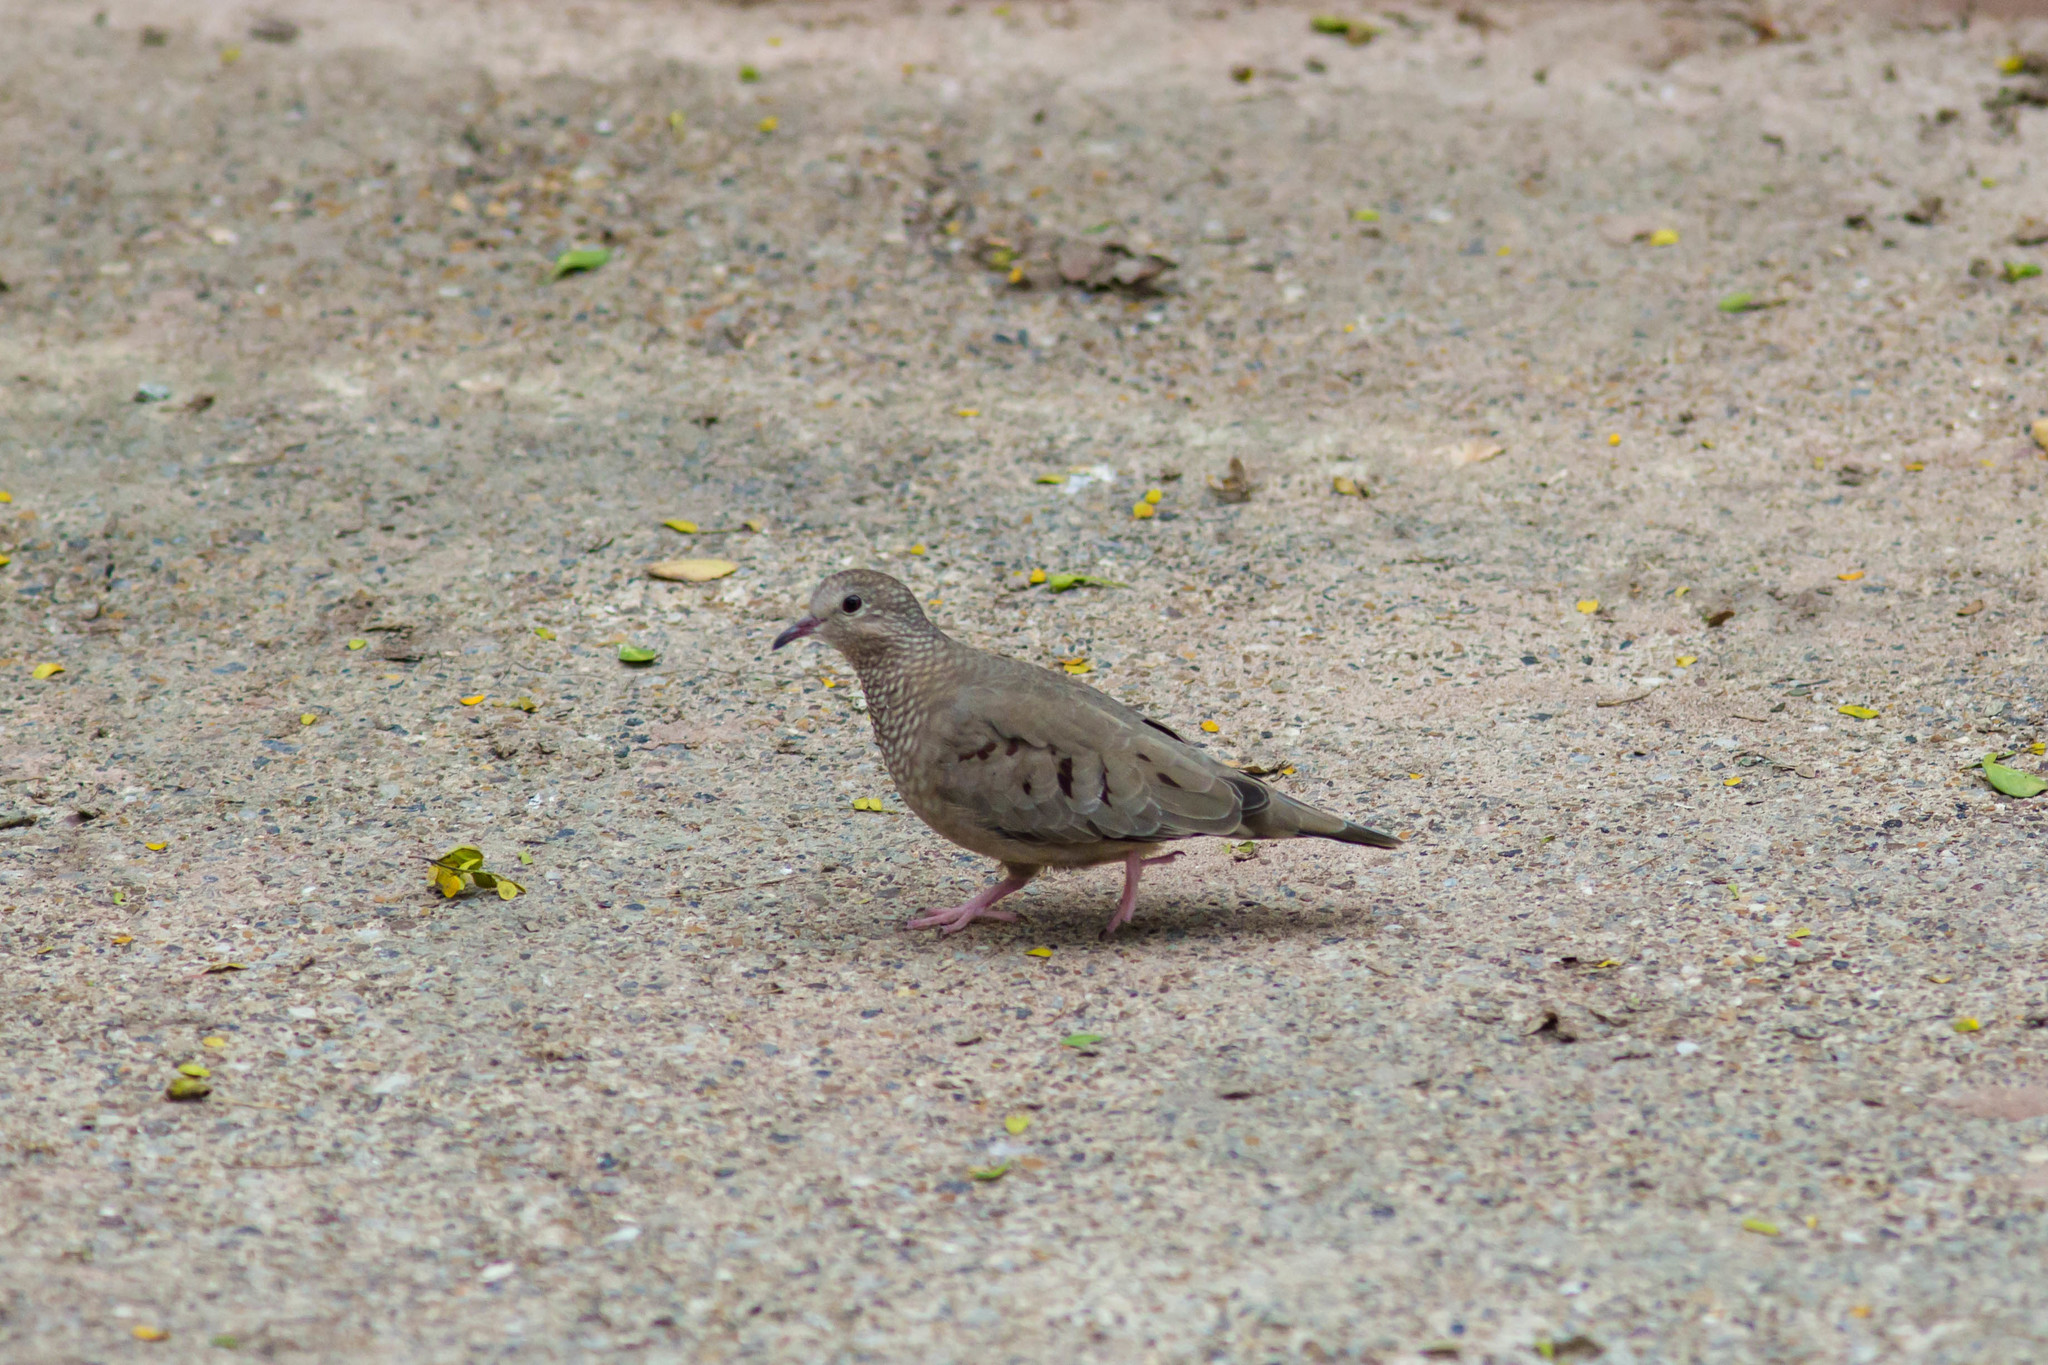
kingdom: Animalia
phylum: Chordata
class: Aves
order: Columbiformes
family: Columbidae
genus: Columbina
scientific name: Columbina passerina
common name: Common ground-dove
